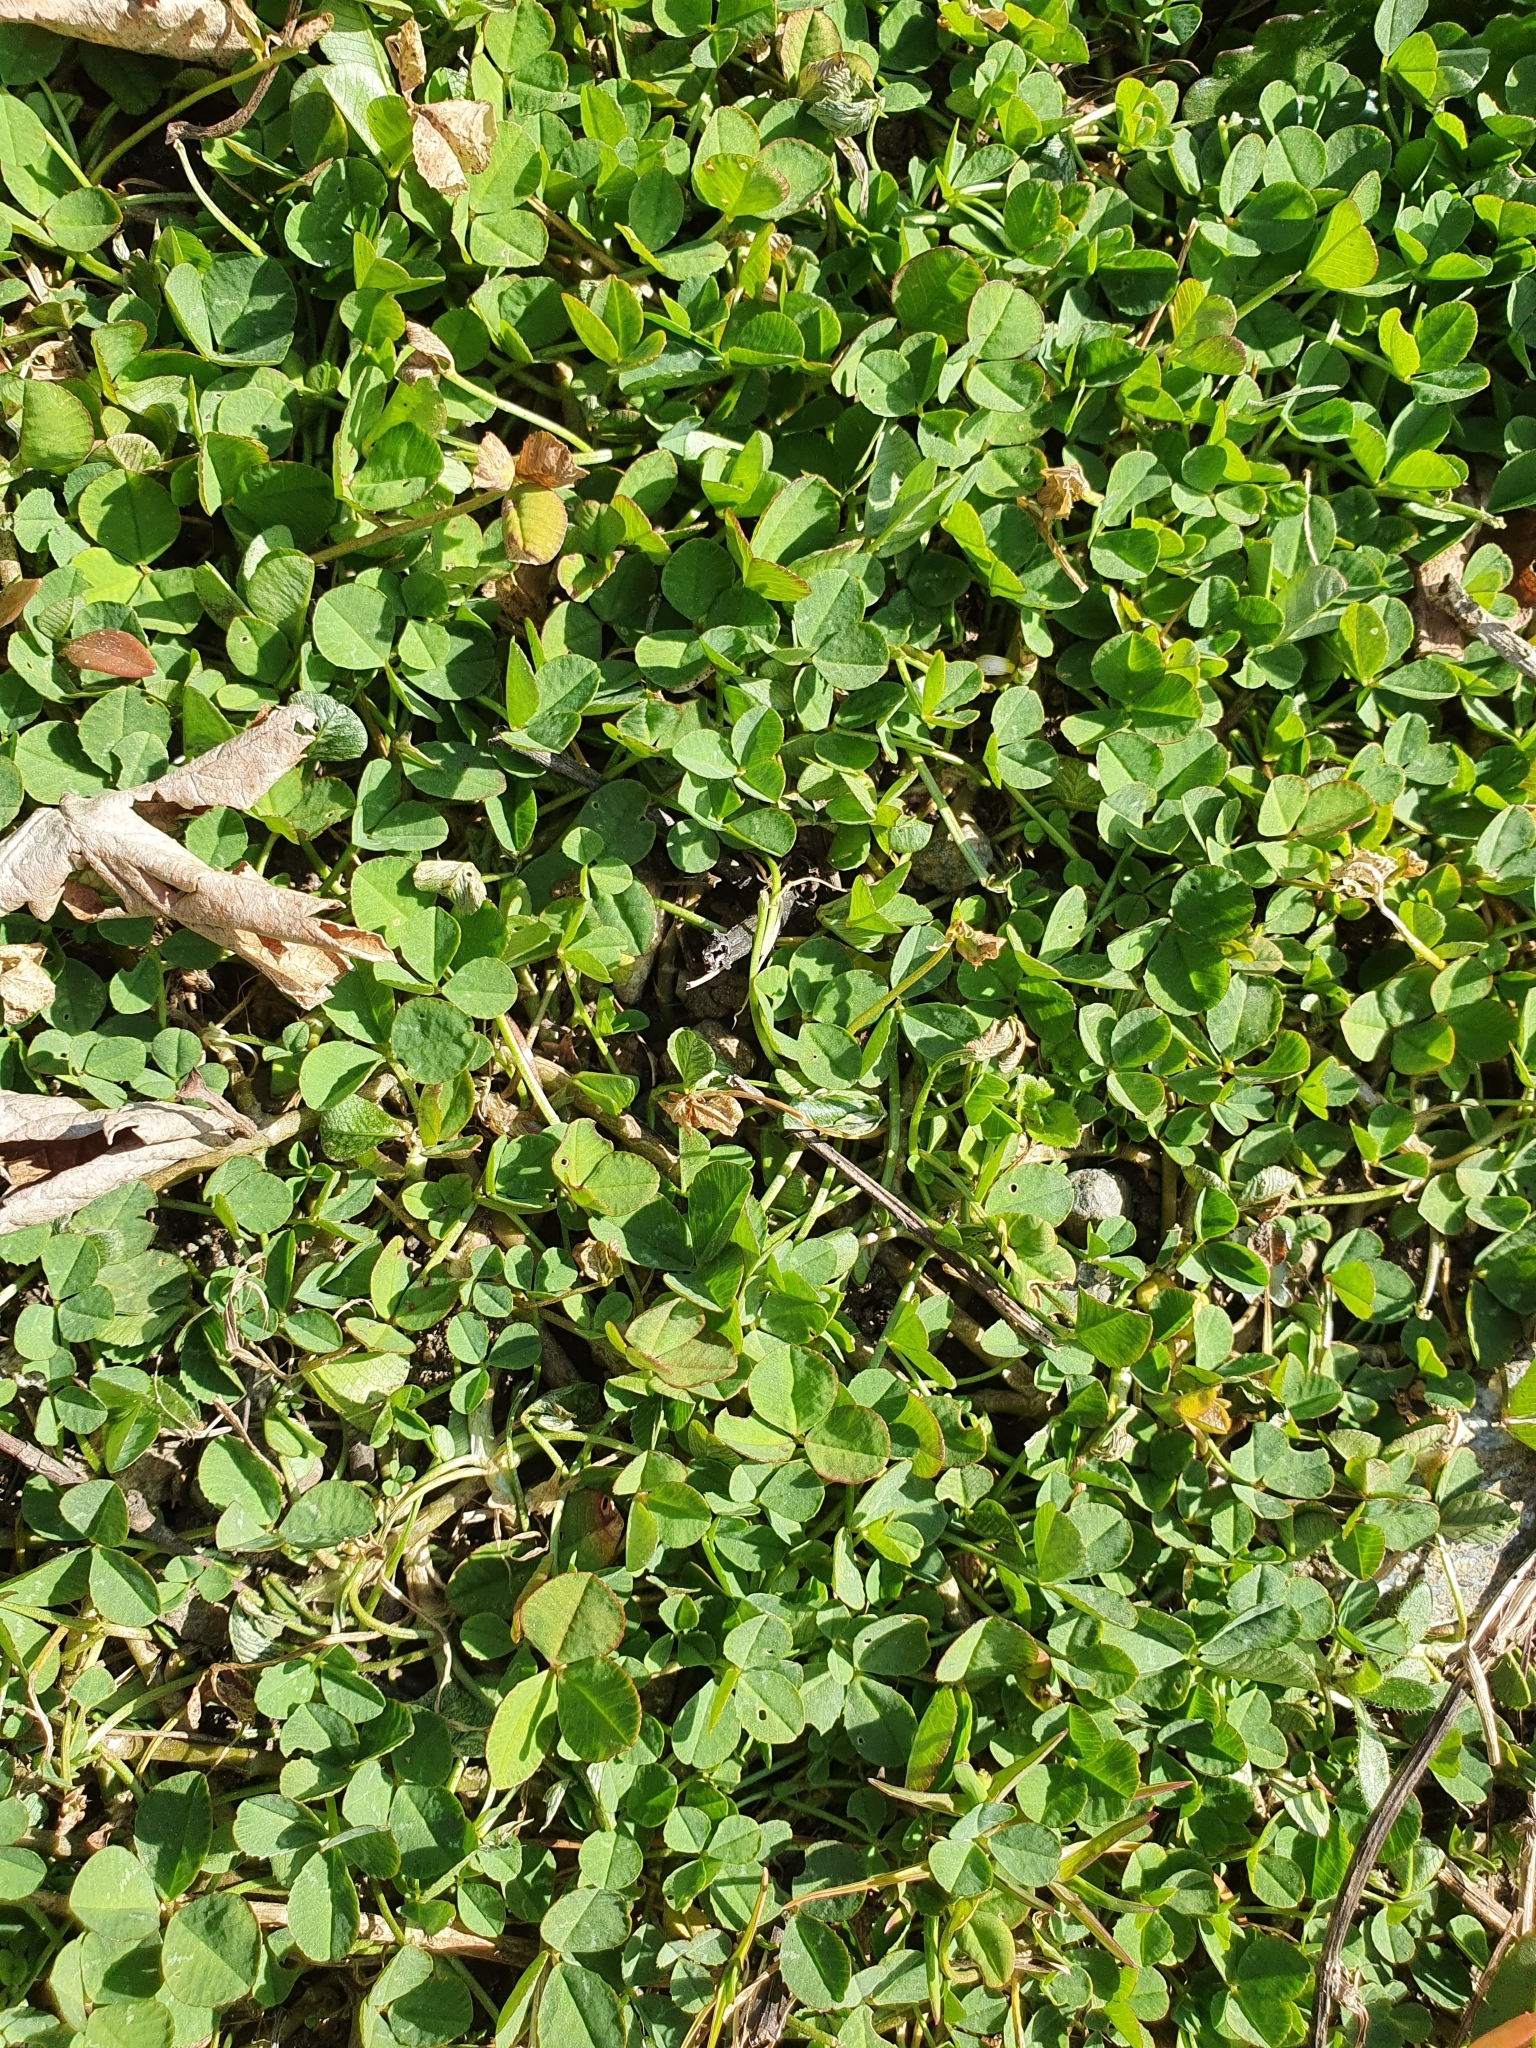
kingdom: Plantae
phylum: Tracheophyta
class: Magnoliopsida
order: Fabales
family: Fabaceae
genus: Trifolium
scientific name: Trifolium repens
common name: White clover
